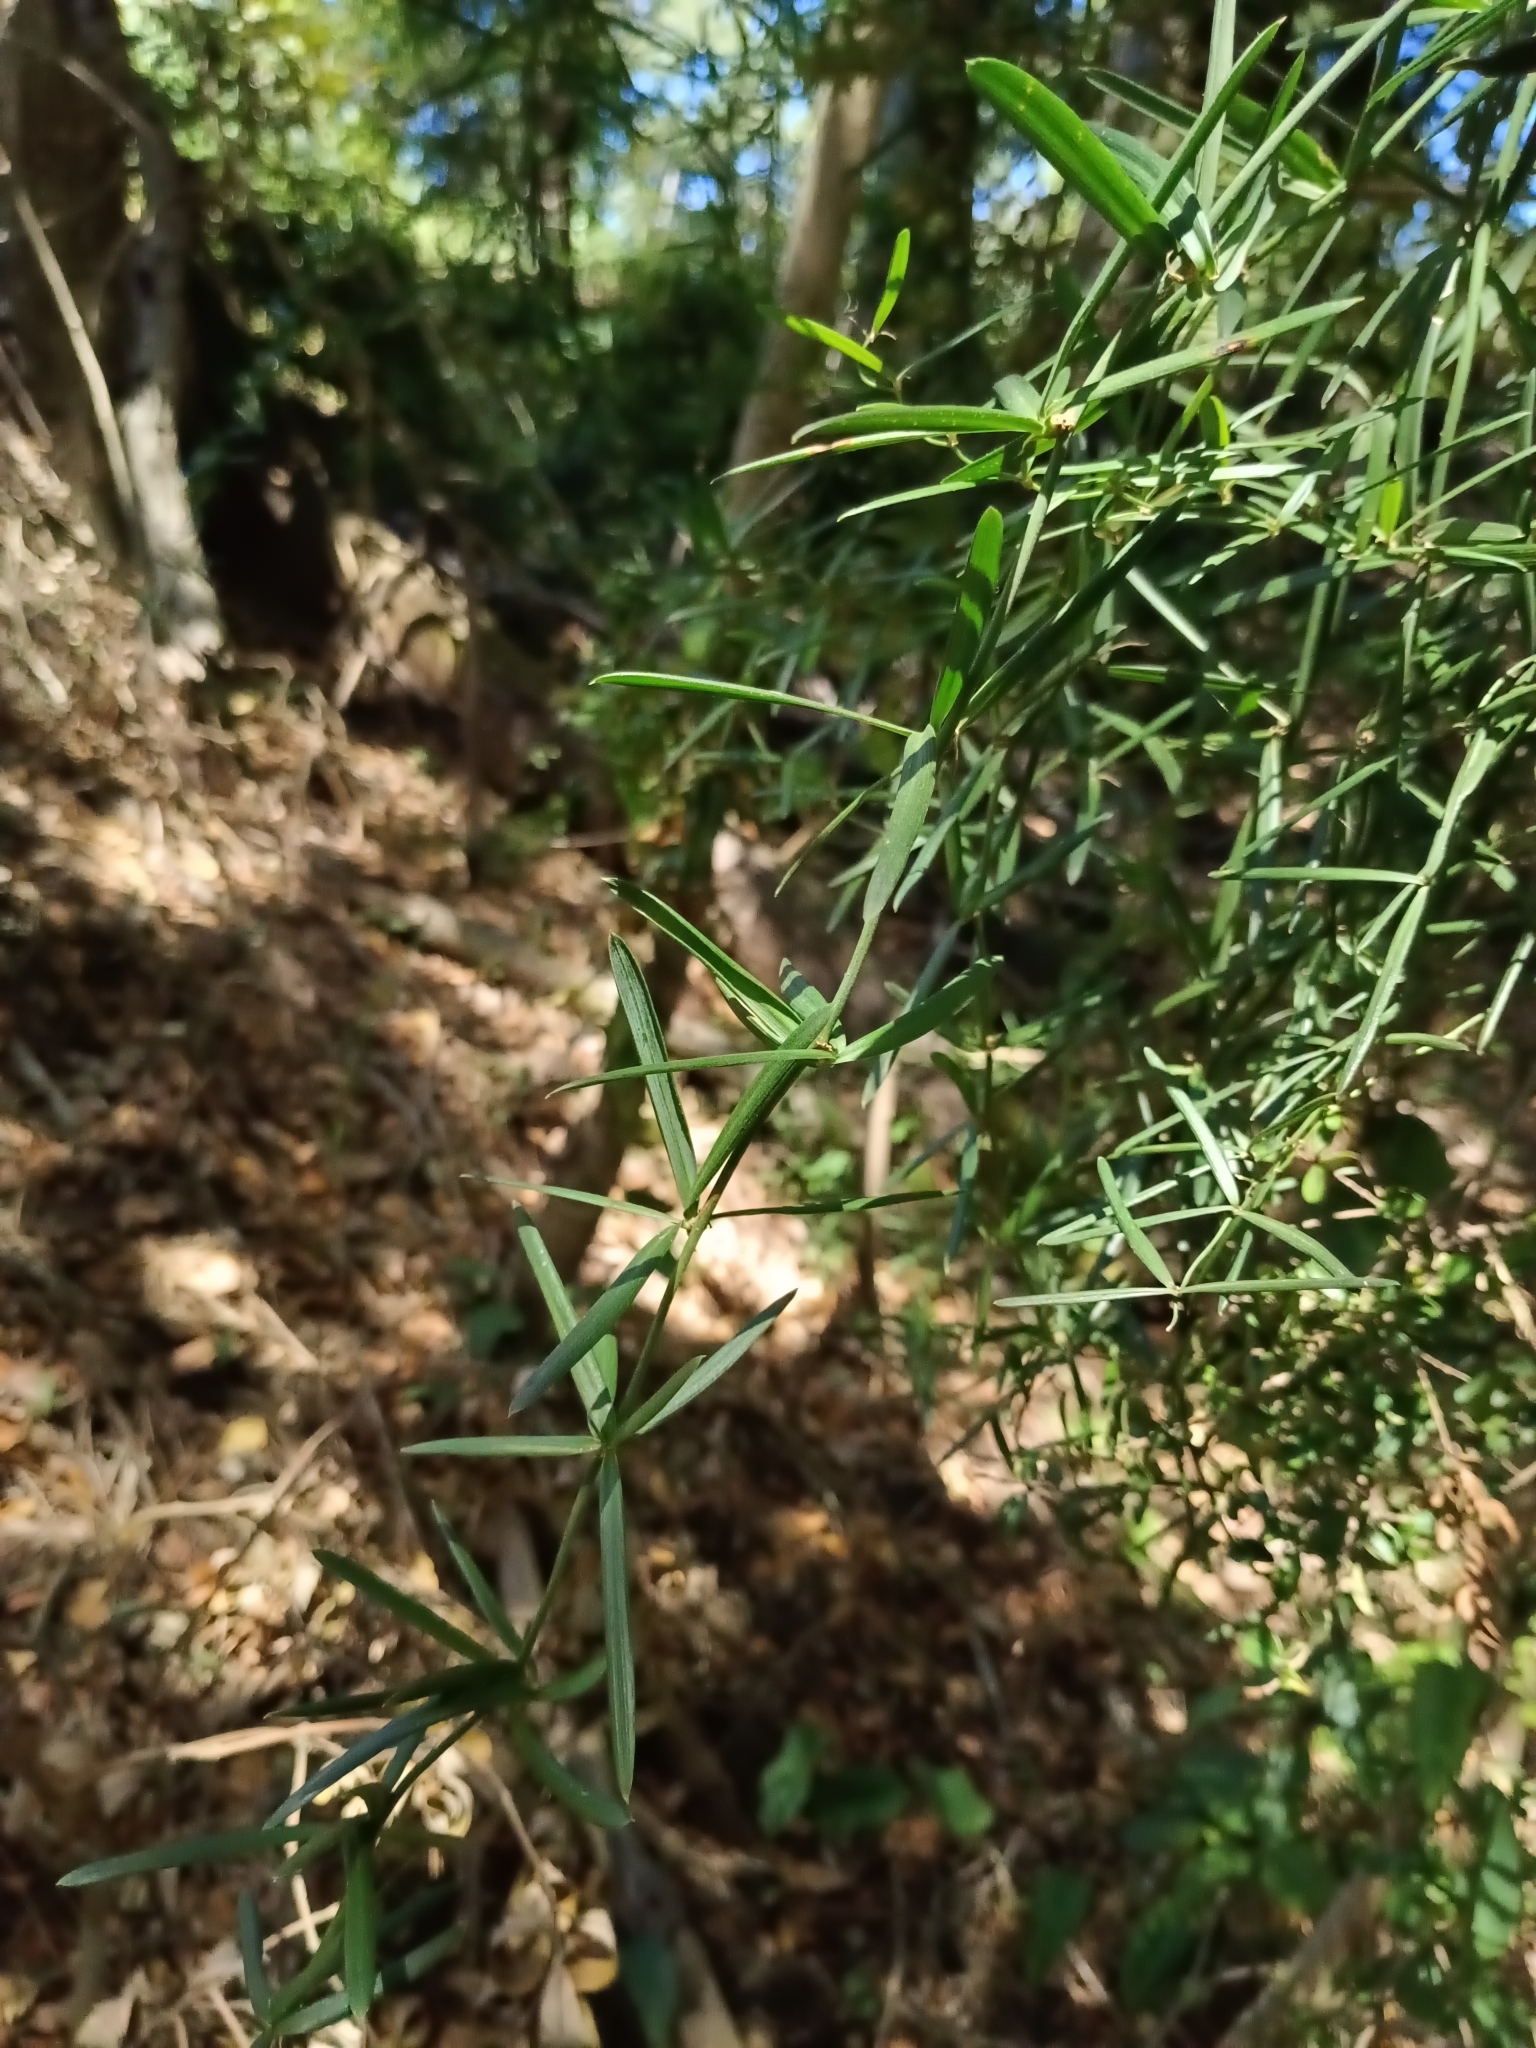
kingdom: Plantae
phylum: Tracheophyta
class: Liliopsida
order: Asparagales
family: Asparagaceae
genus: Herreria
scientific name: Herreria stellata
